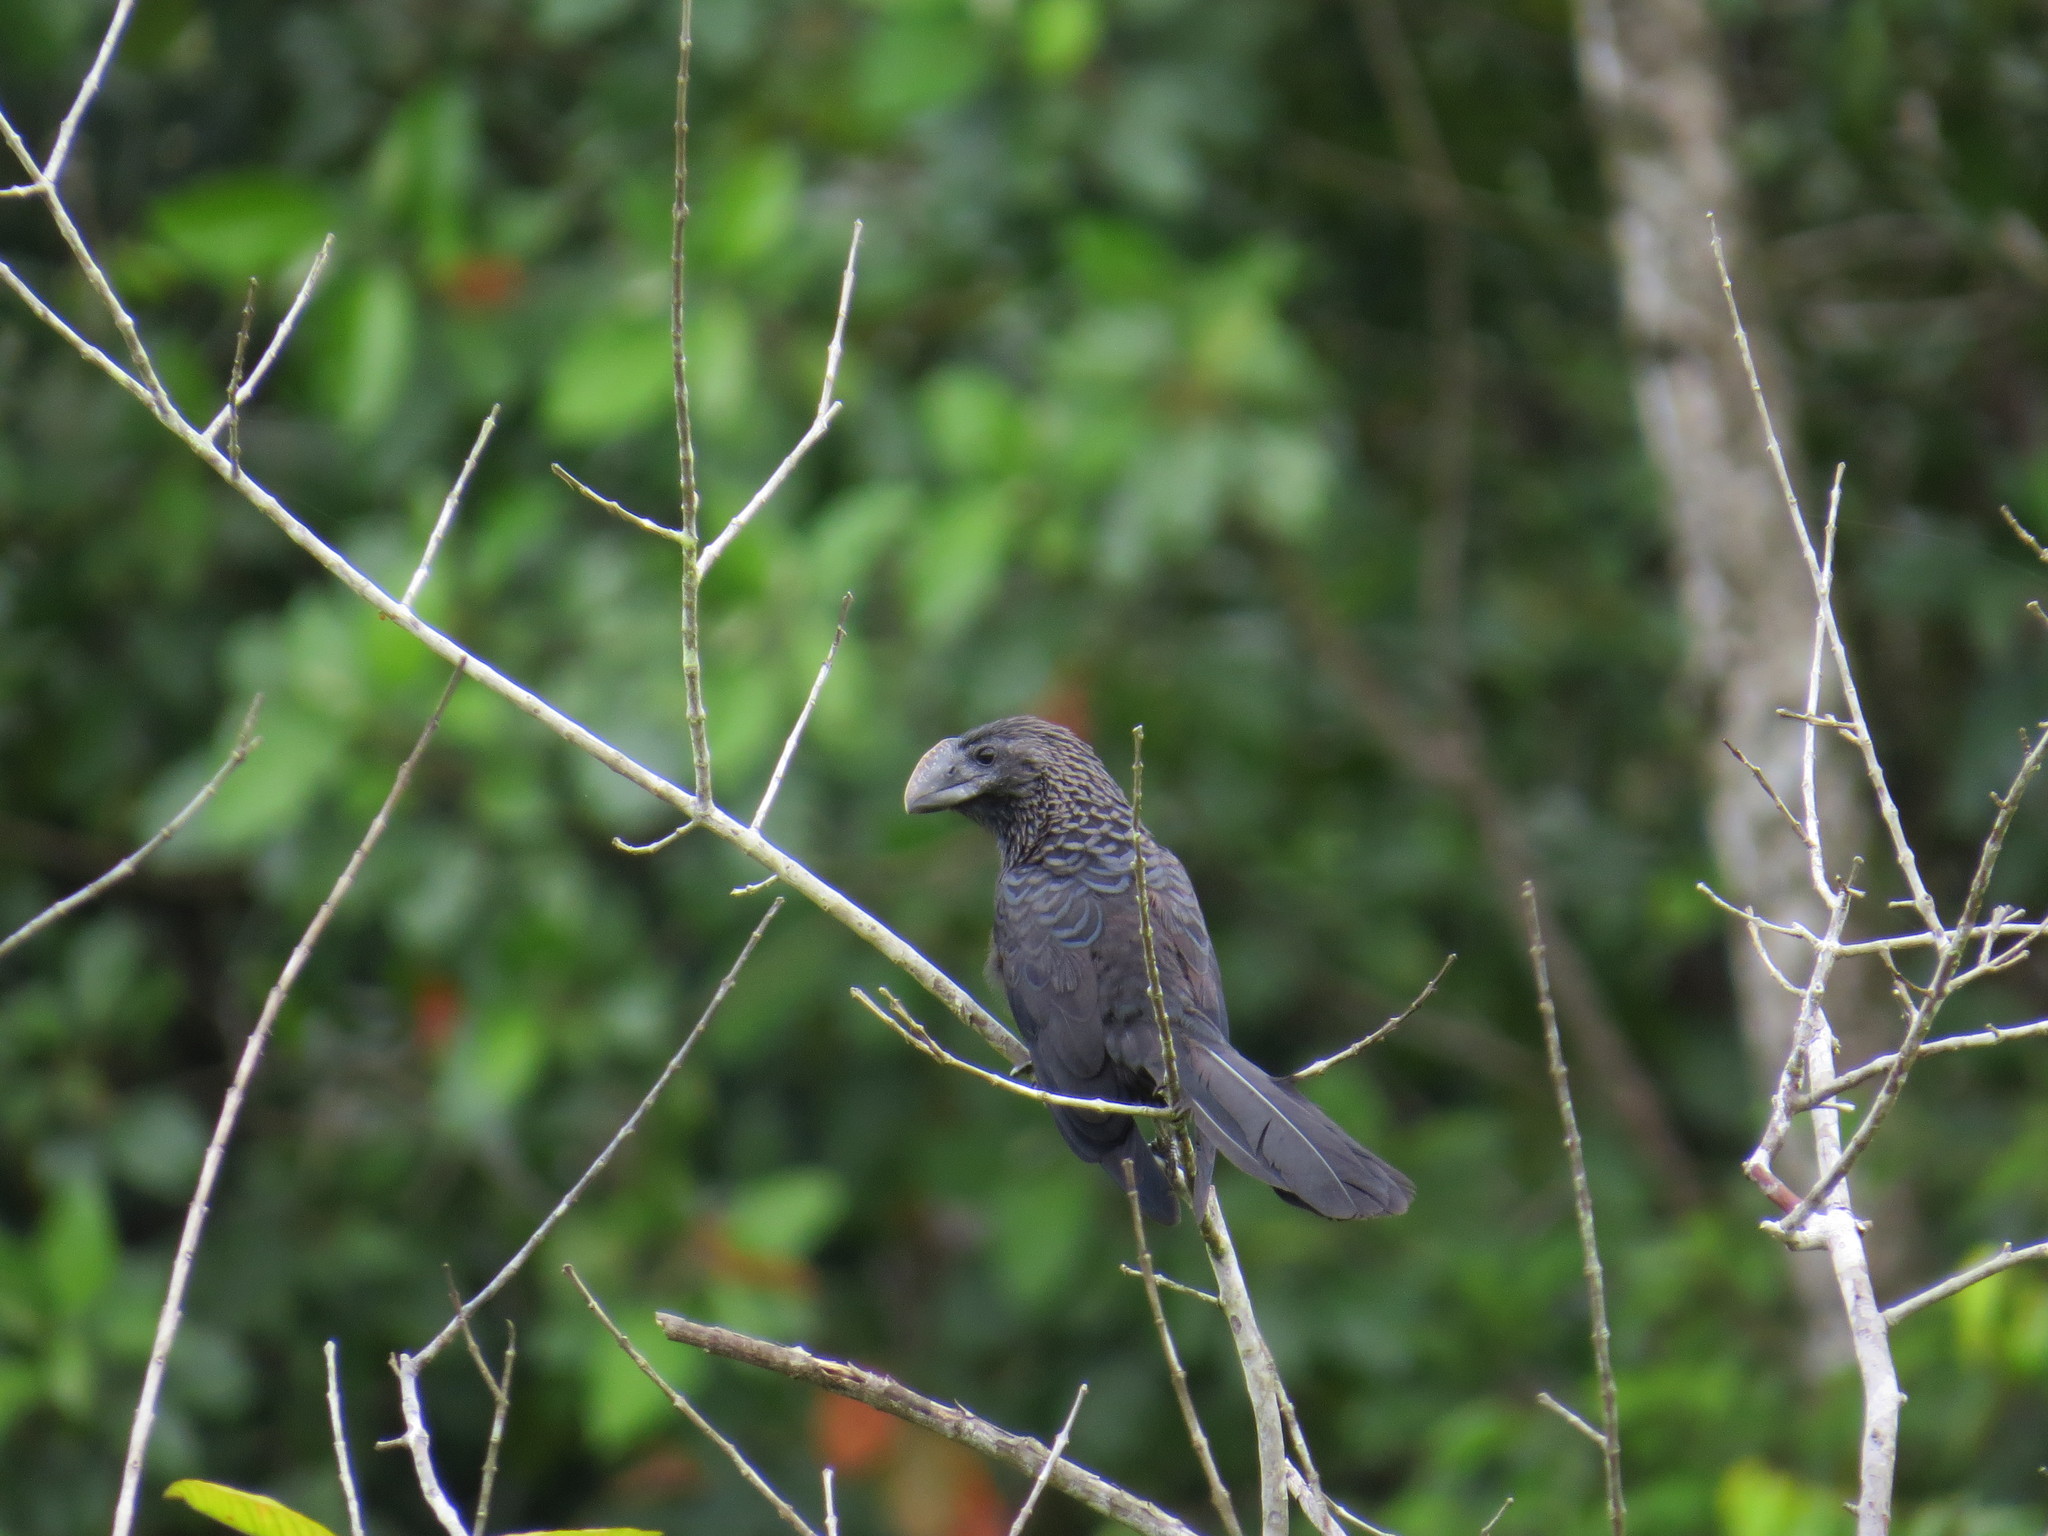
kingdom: Animalia
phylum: Chordata
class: Aves
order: Cuculiformes
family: Cuculidae
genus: Crotophaga
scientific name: Crotophaga ani
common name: Smooth-billed ani
